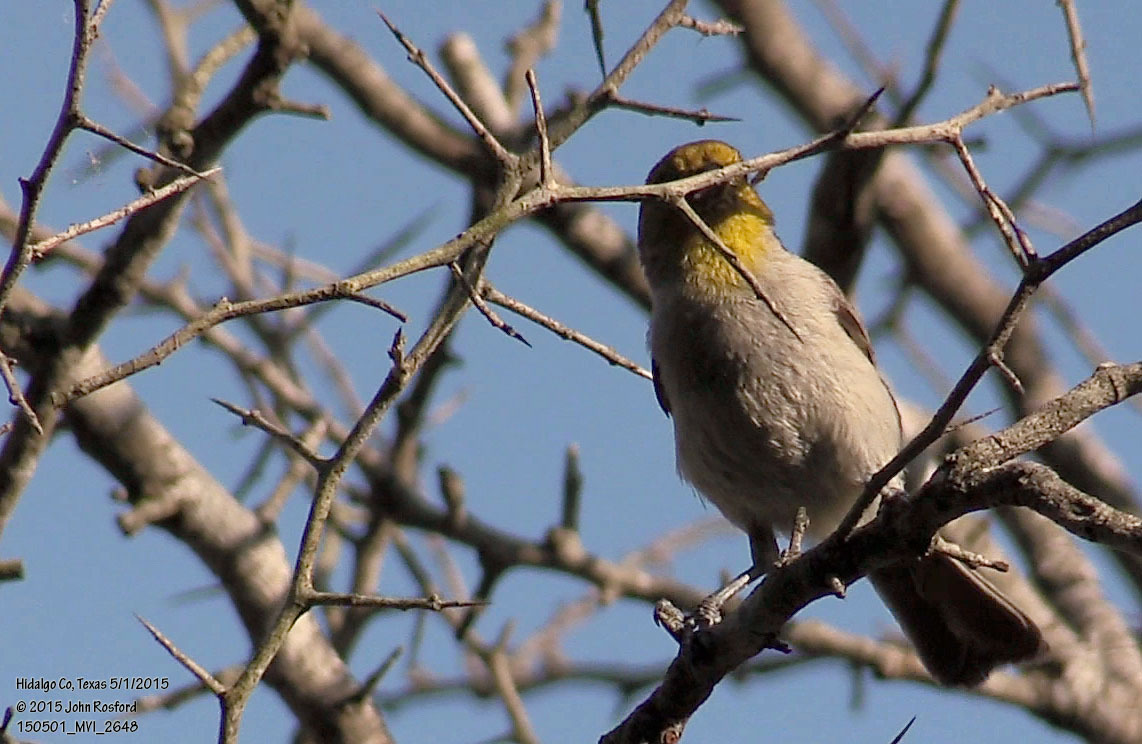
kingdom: Animalia
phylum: Chordata
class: Aves
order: Passeriformes
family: Remizidae
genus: Auriparus
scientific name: Auriparus flaviceps
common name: Verdin
